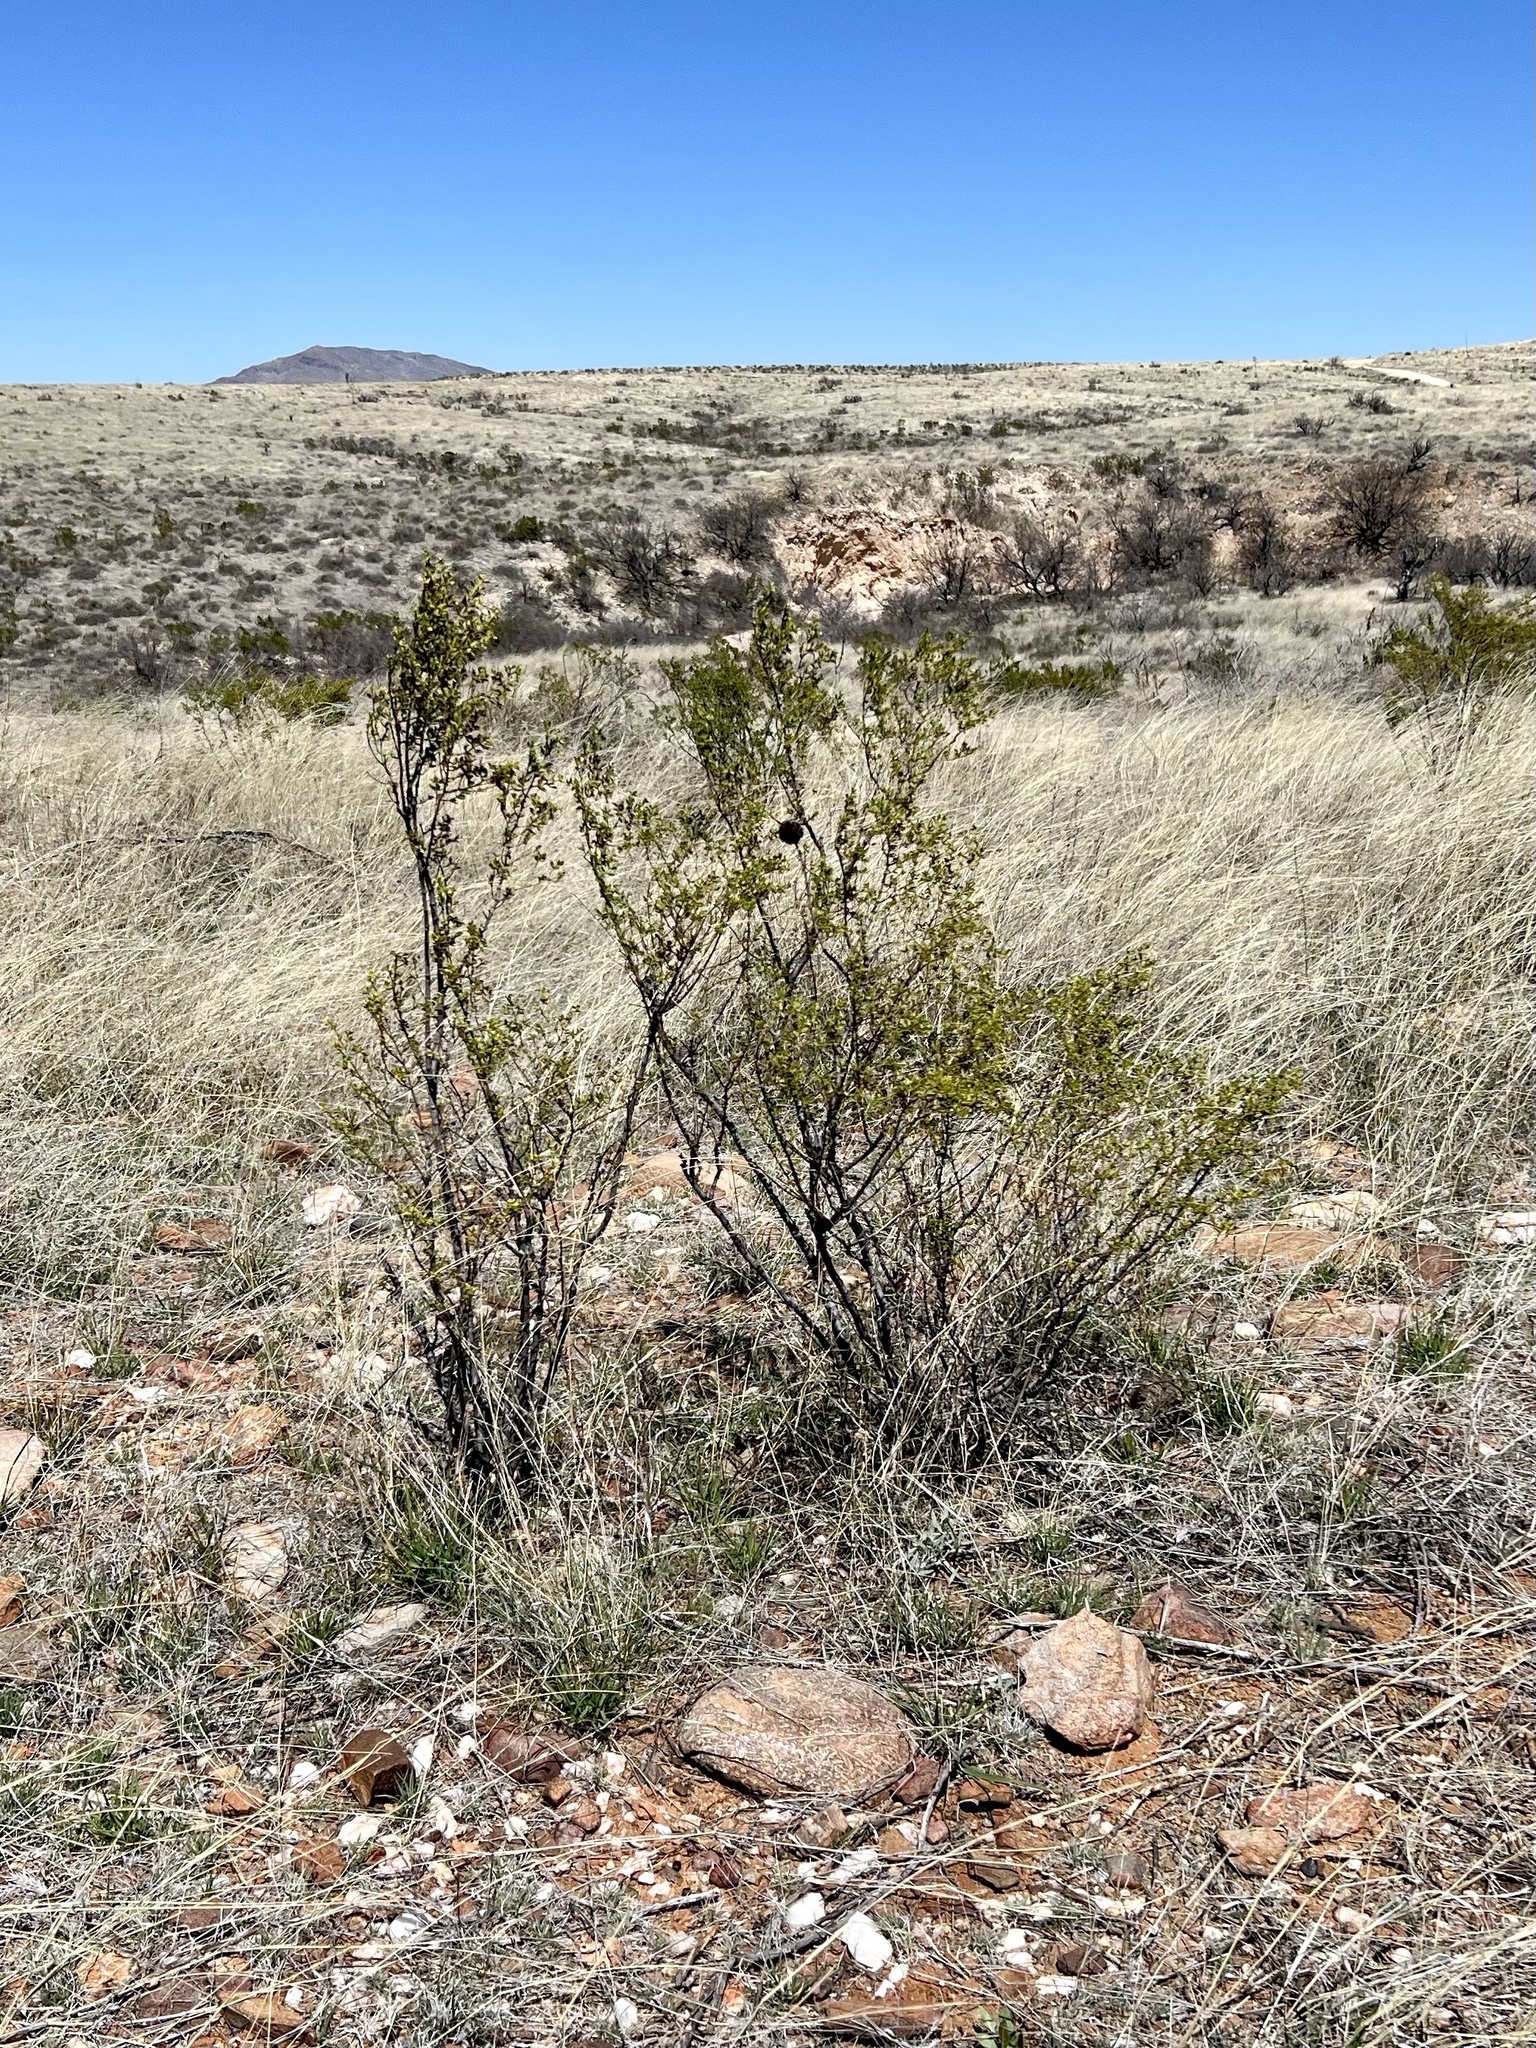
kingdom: Plantae
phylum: Tracheophyta
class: Magnoliopsida
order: Zygophyllales
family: Zygophyllaceae
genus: Larrea
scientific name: Larrea tridentata
